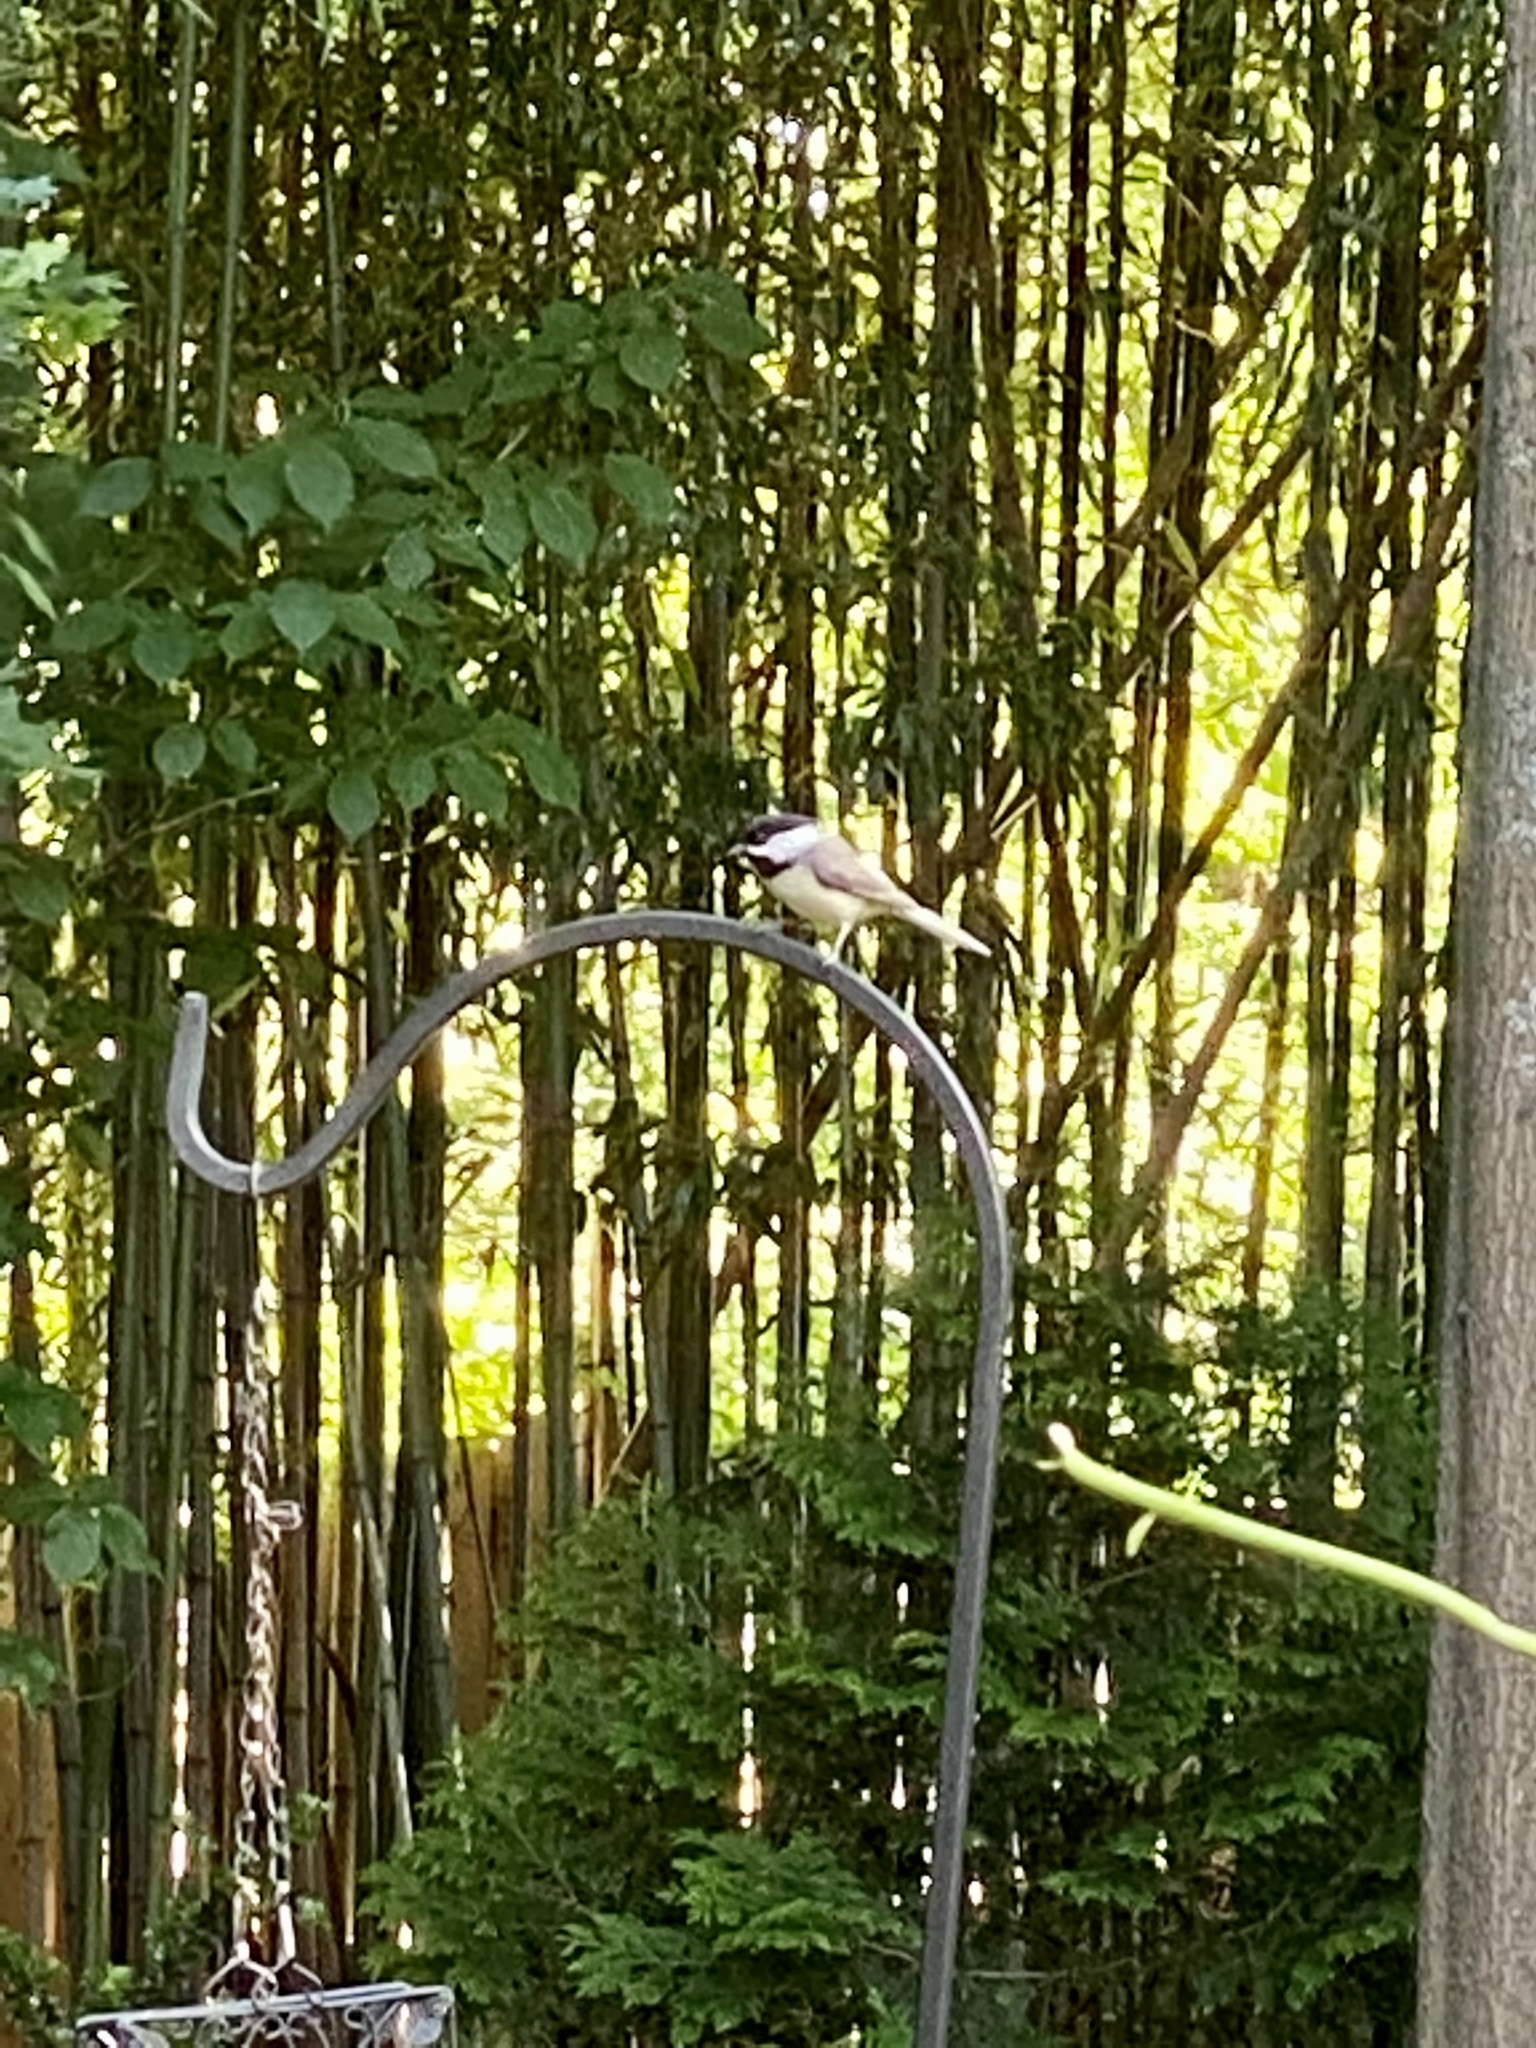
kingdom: Animalia
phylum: Chordata
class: Aves
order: Passeriformes
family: Paridae
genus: Poecile
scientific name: Poecile atricapillus
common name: Black-capped chickadee
